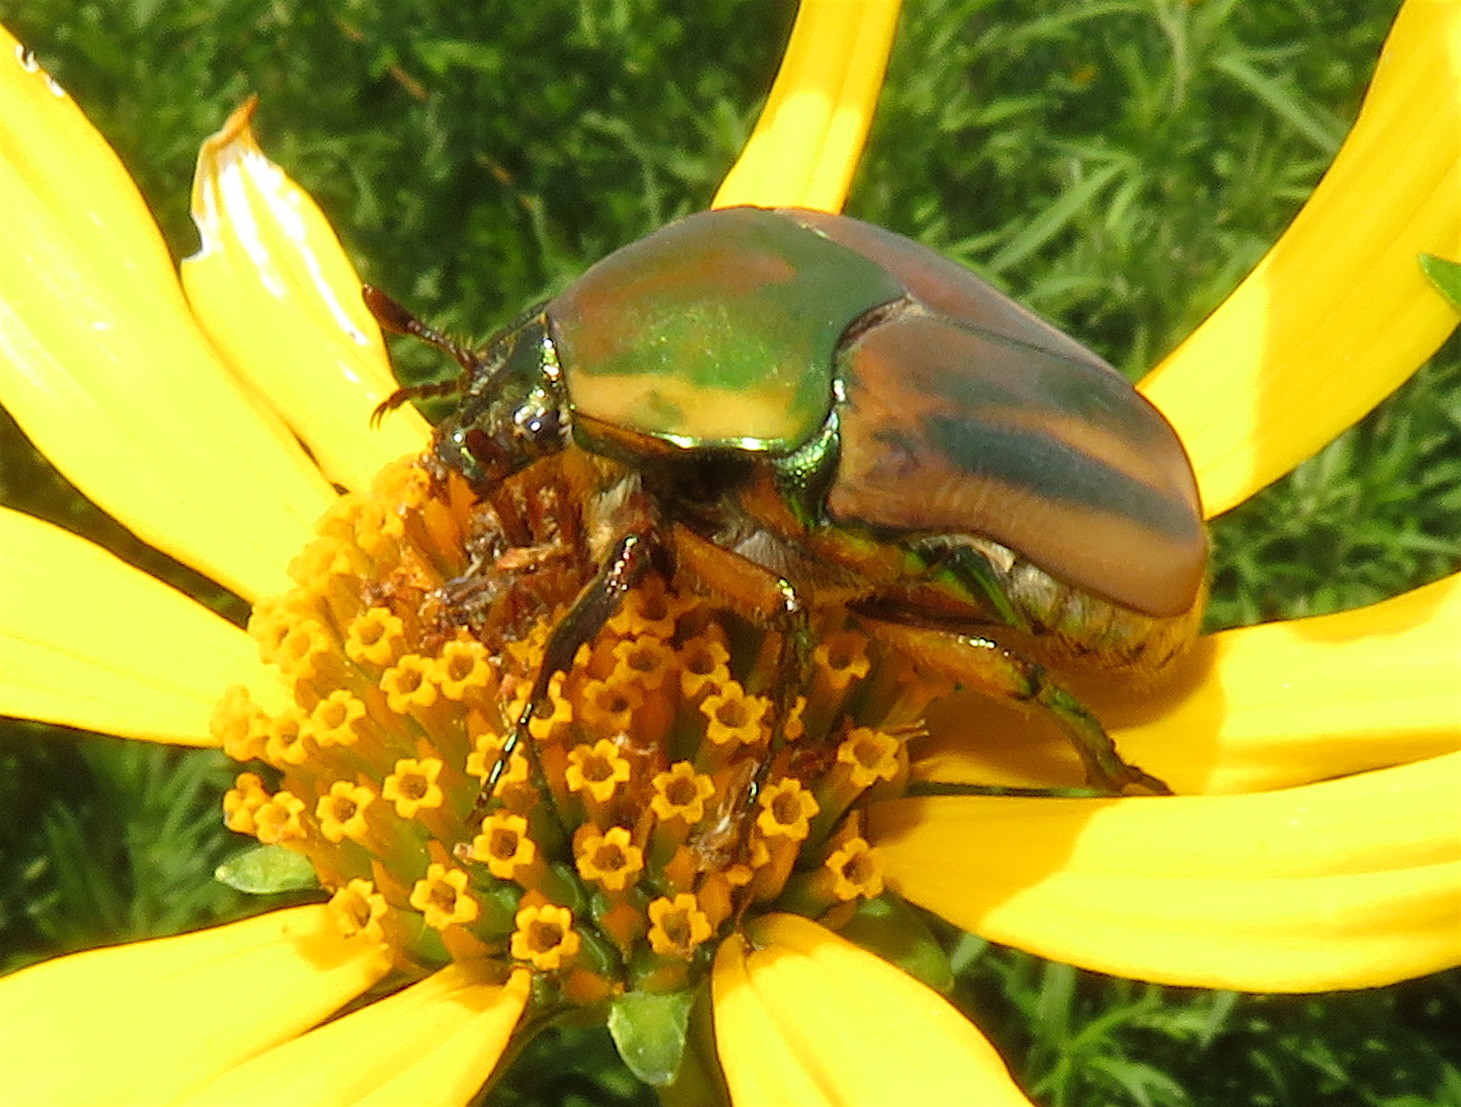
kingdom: Animalia
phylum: Arthropoda
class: Insecta
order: Coleoptera
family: Scarabaeidae
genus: Cotinis
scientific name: Cotinis nitida
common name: Common green june beetle
